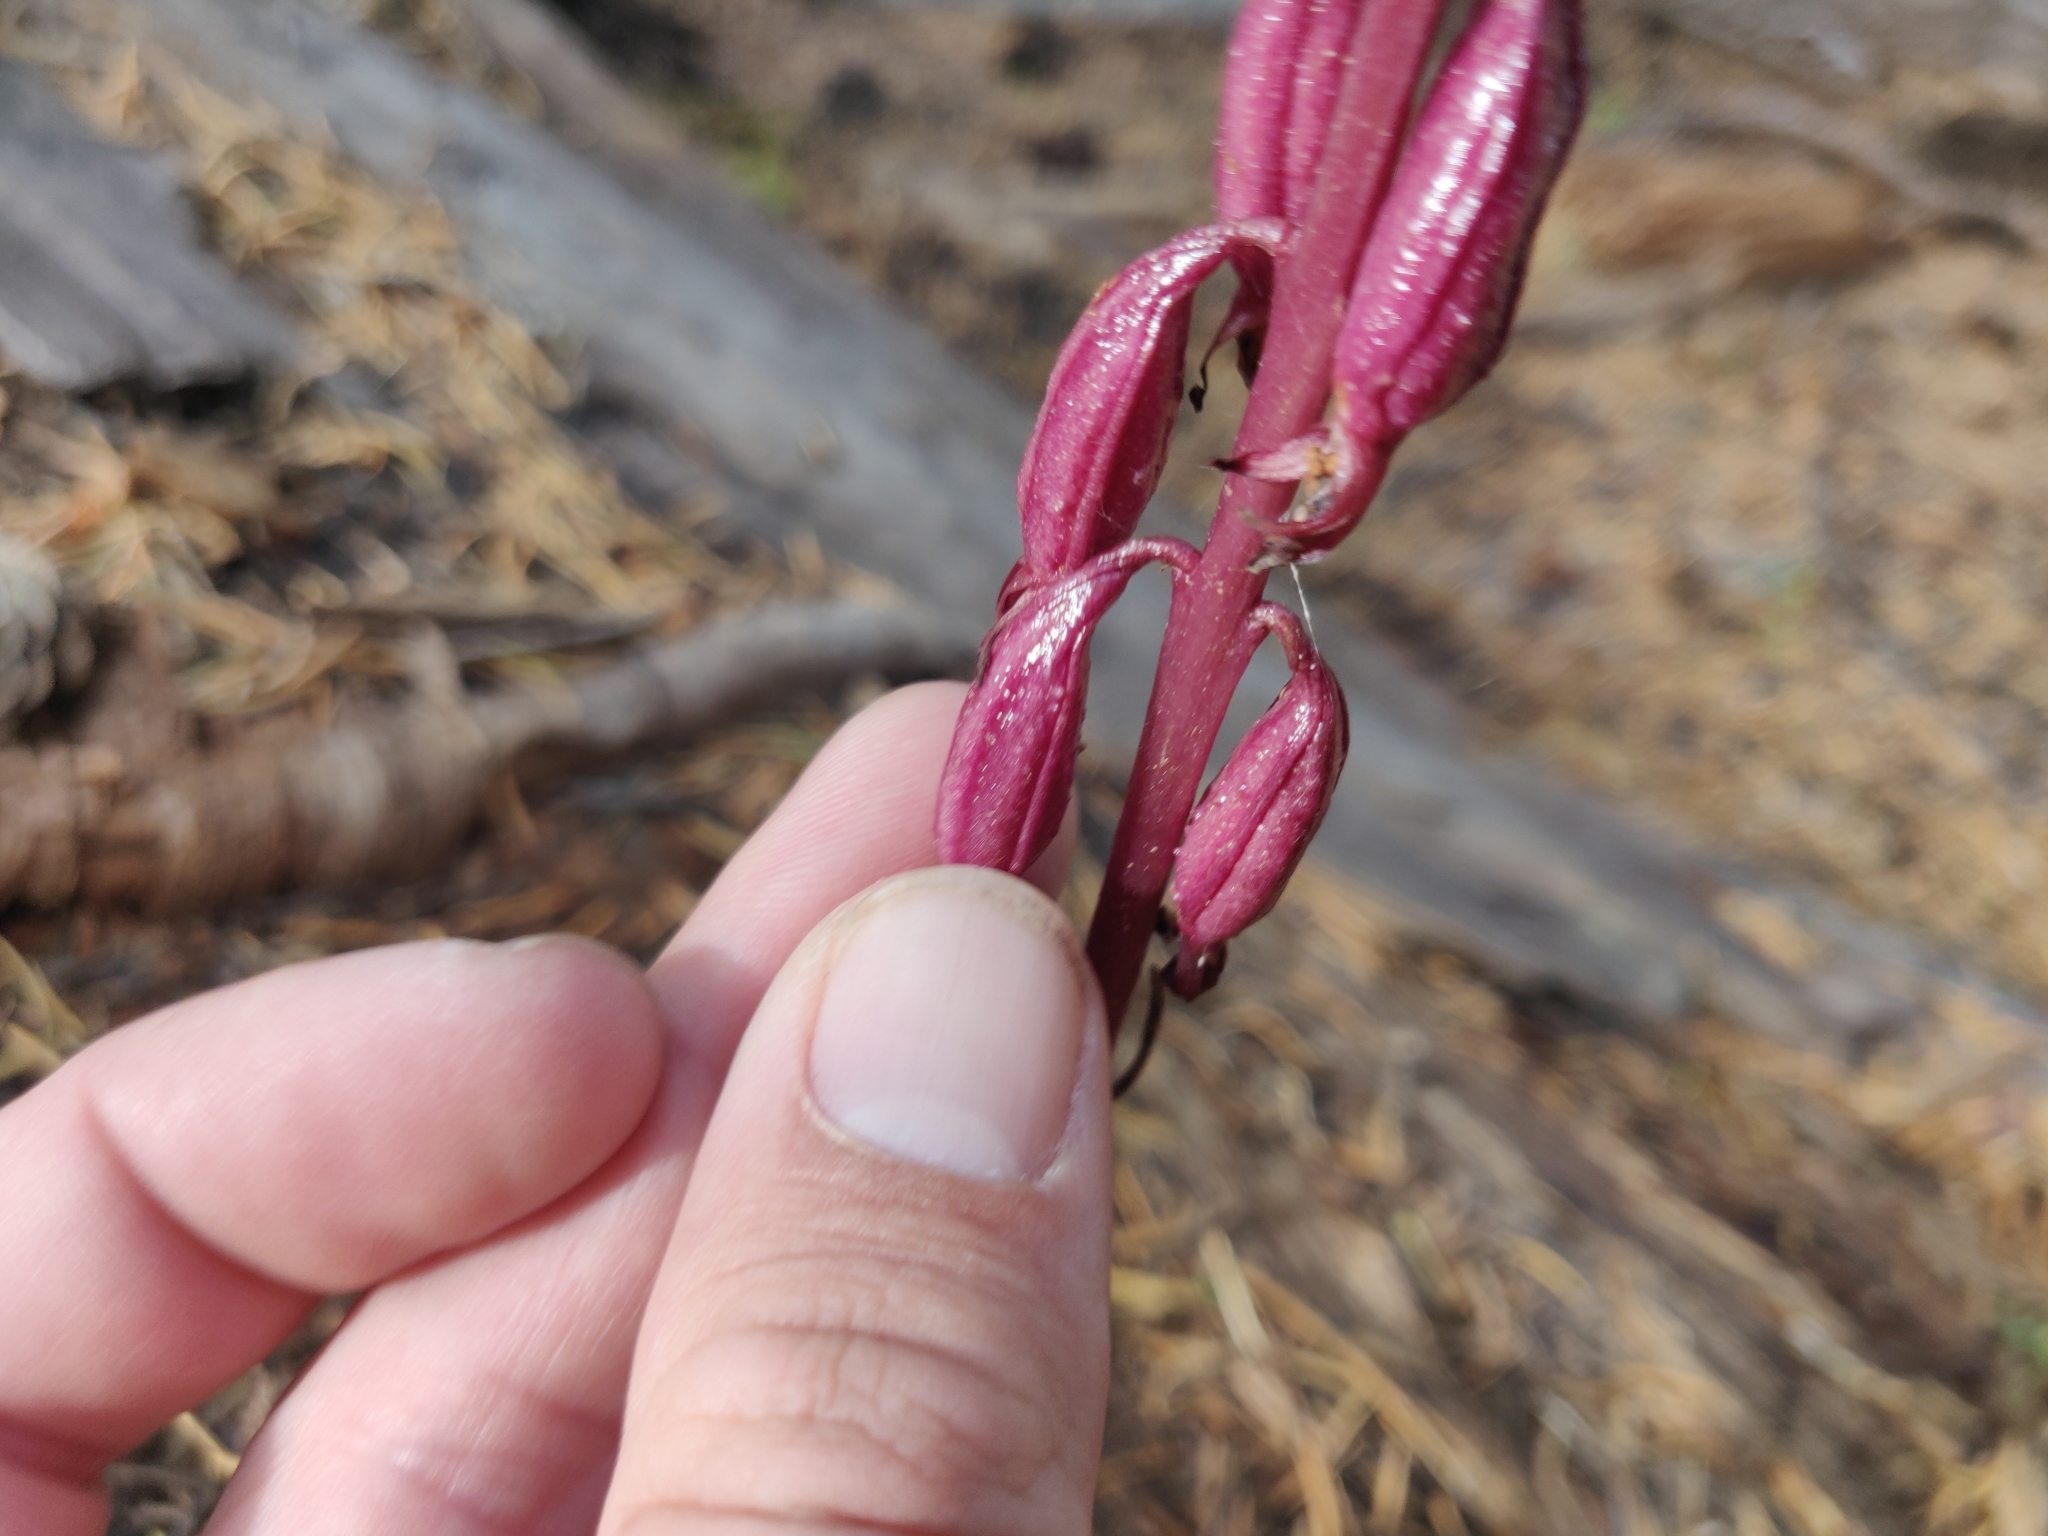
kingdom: Plantae
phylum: Tracheophyta
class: Liliopsida
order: Asparagales
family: Orchidaceae
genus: Corallorhiza
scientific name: Corallorhiza maculata
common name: Spotted coralroot
